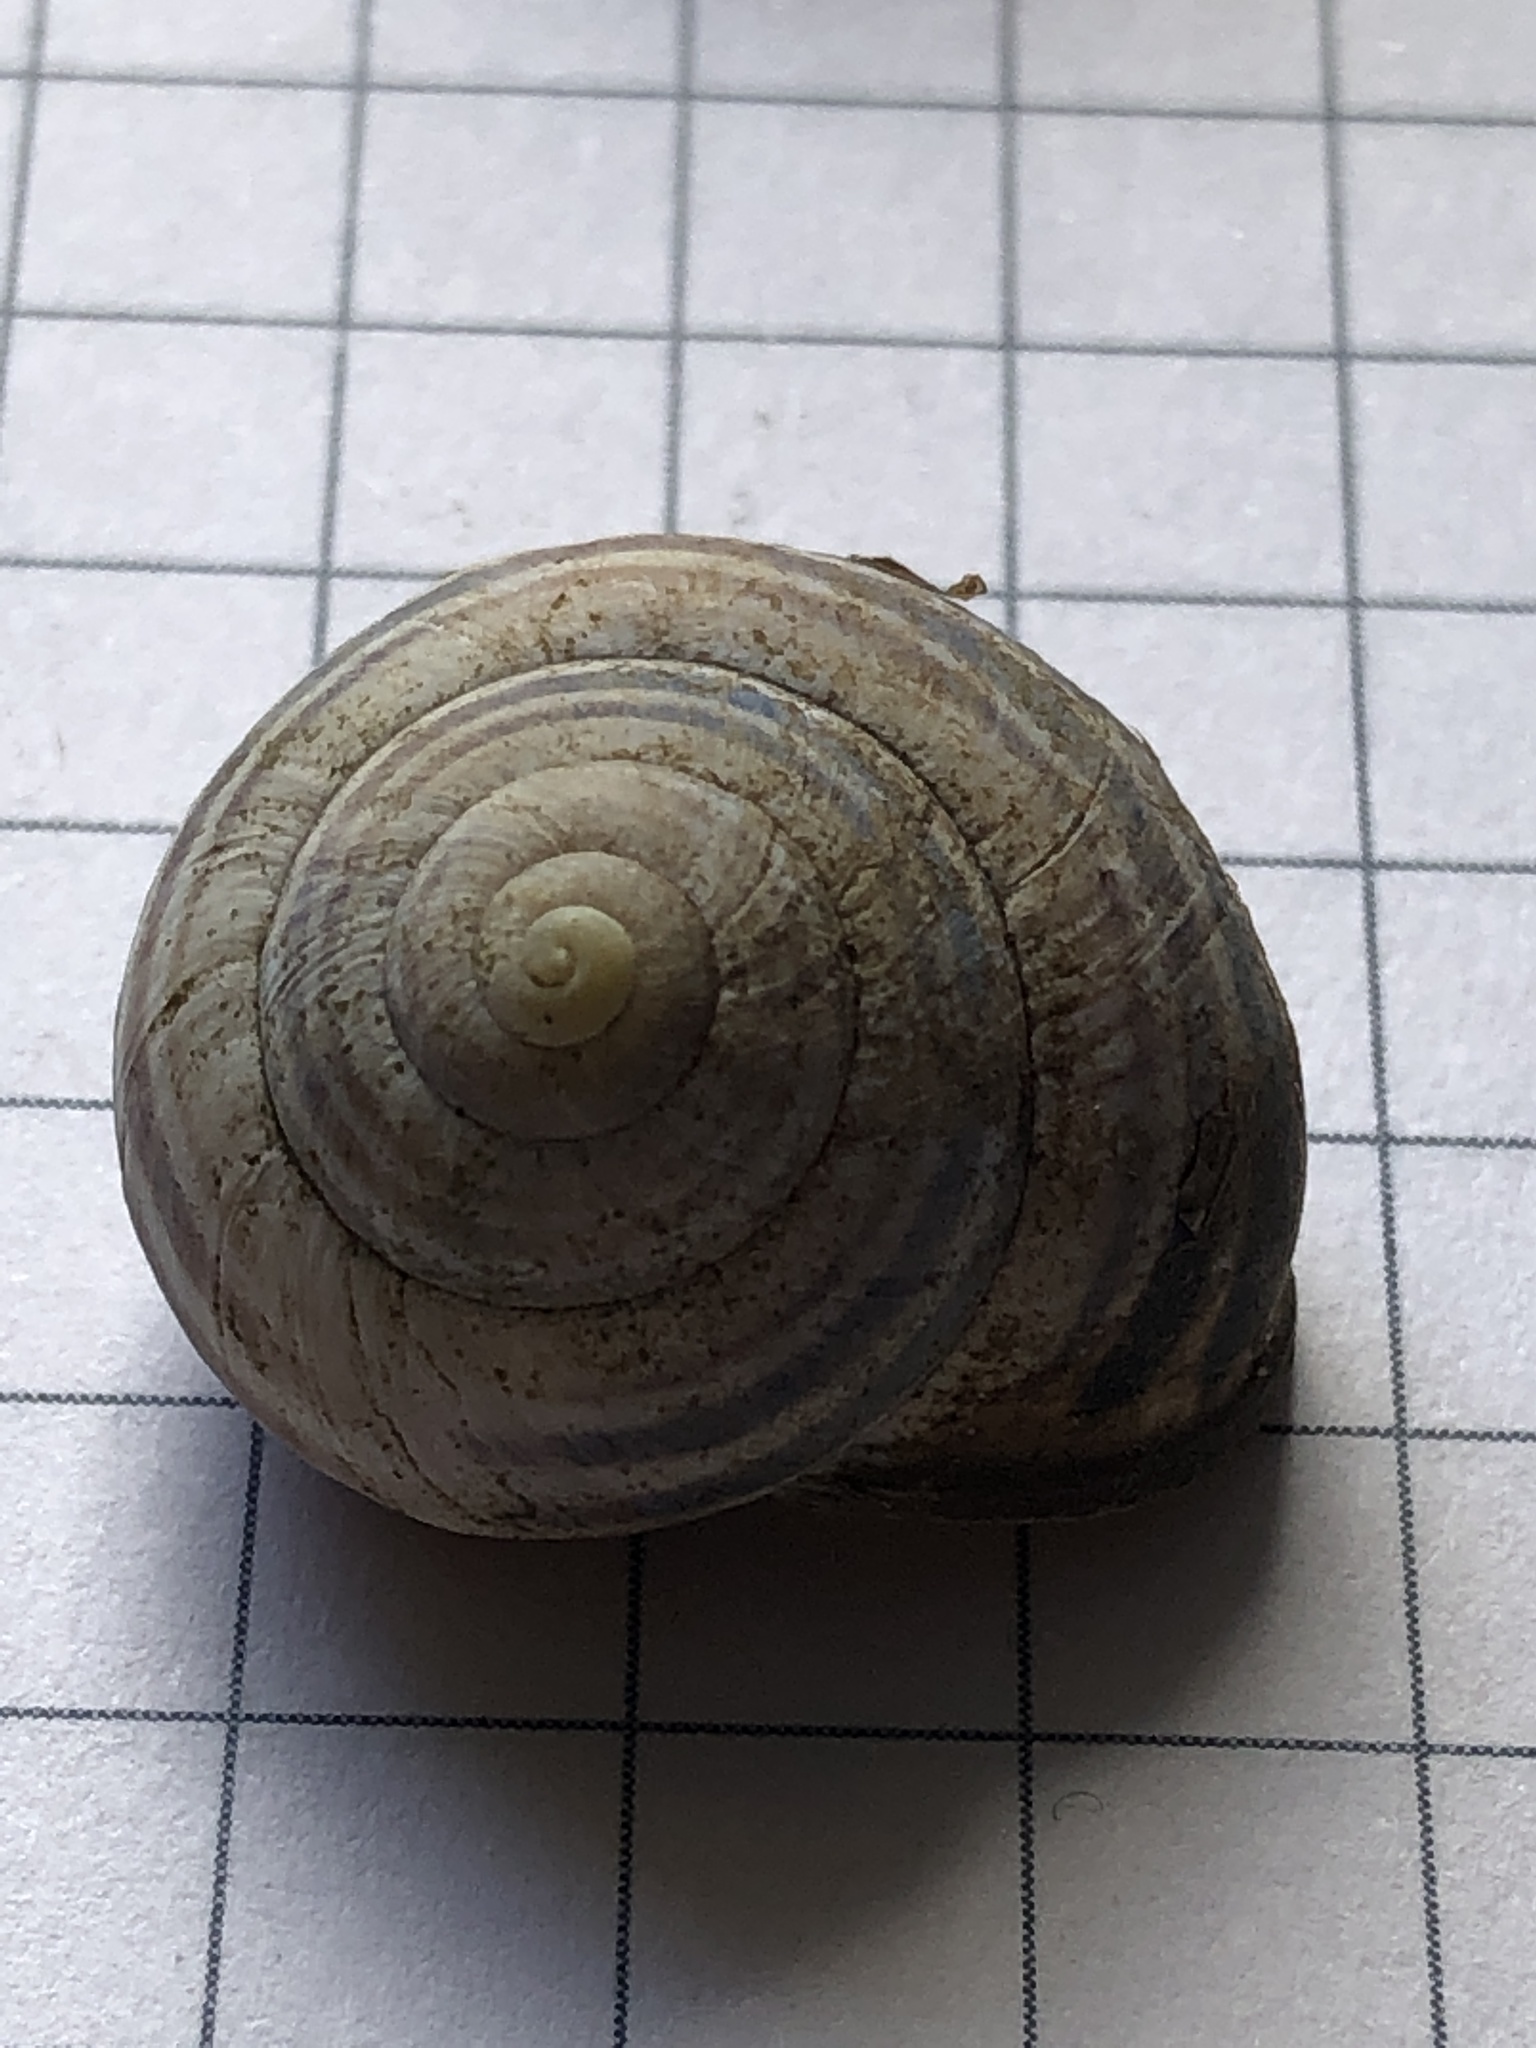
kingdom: Animalia
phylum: Mollusca
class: Gastropoda
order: Stylommatophora
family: Helicidae
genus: Cepaea
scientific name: Cepaea nemoralis
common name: Grovesnail
